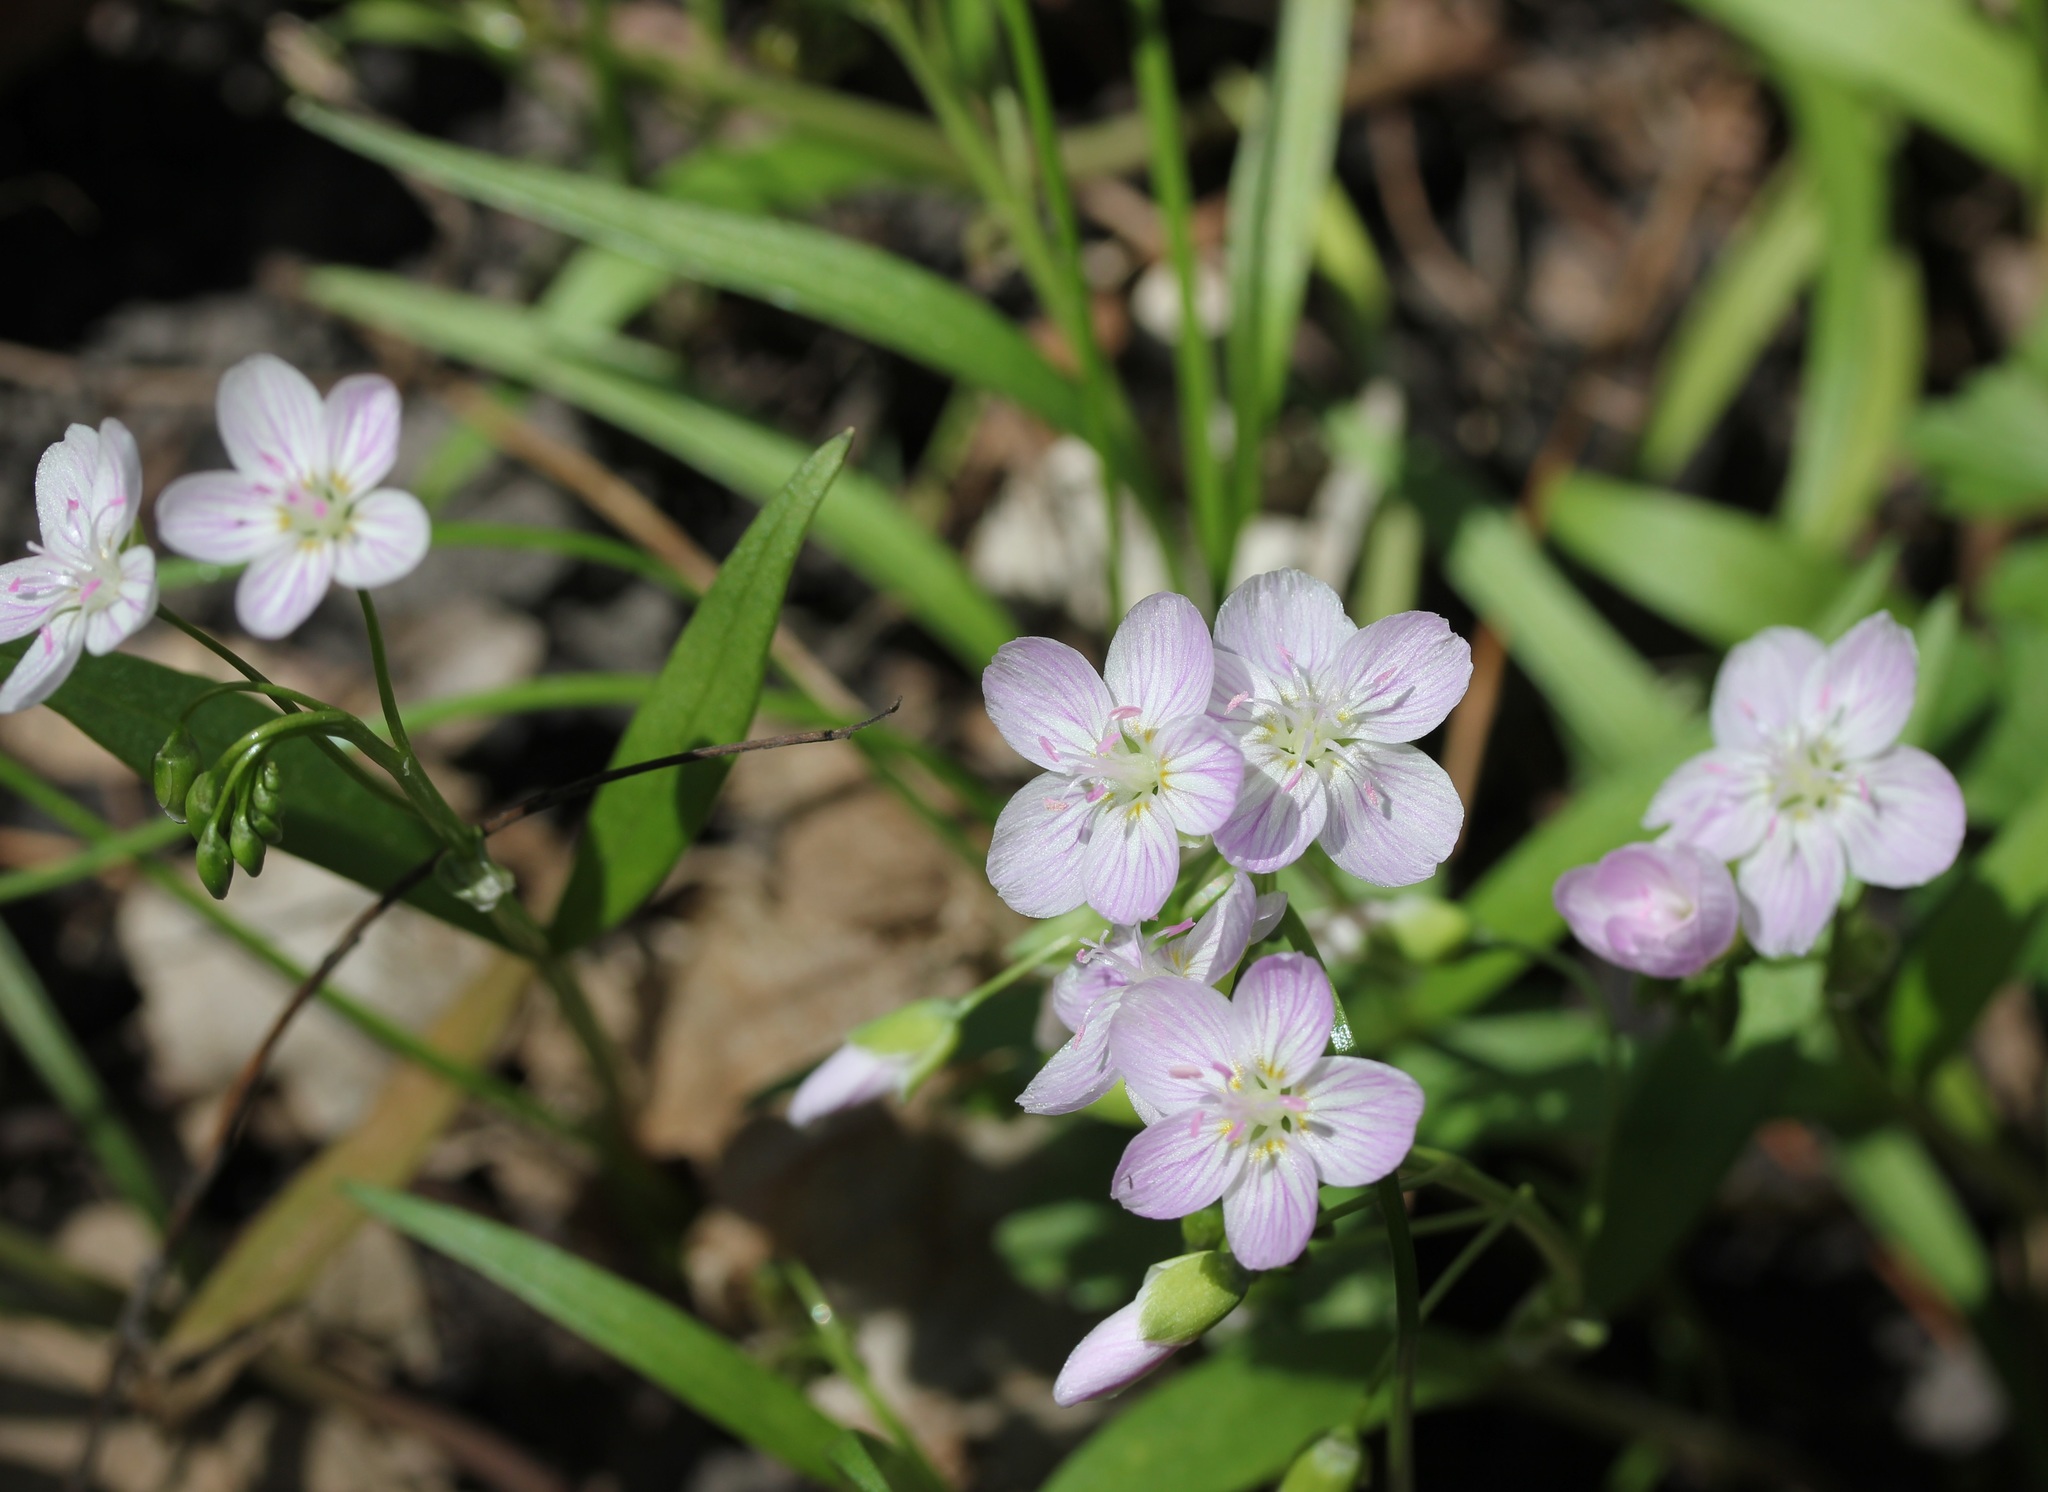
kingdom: Plantae
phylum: Tracheophyta
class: Magnoliopsida
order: Caryophyllales
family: Montiaceae
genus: Claytonia
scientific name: Claytonia virginica
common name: Virginia springbeauty
